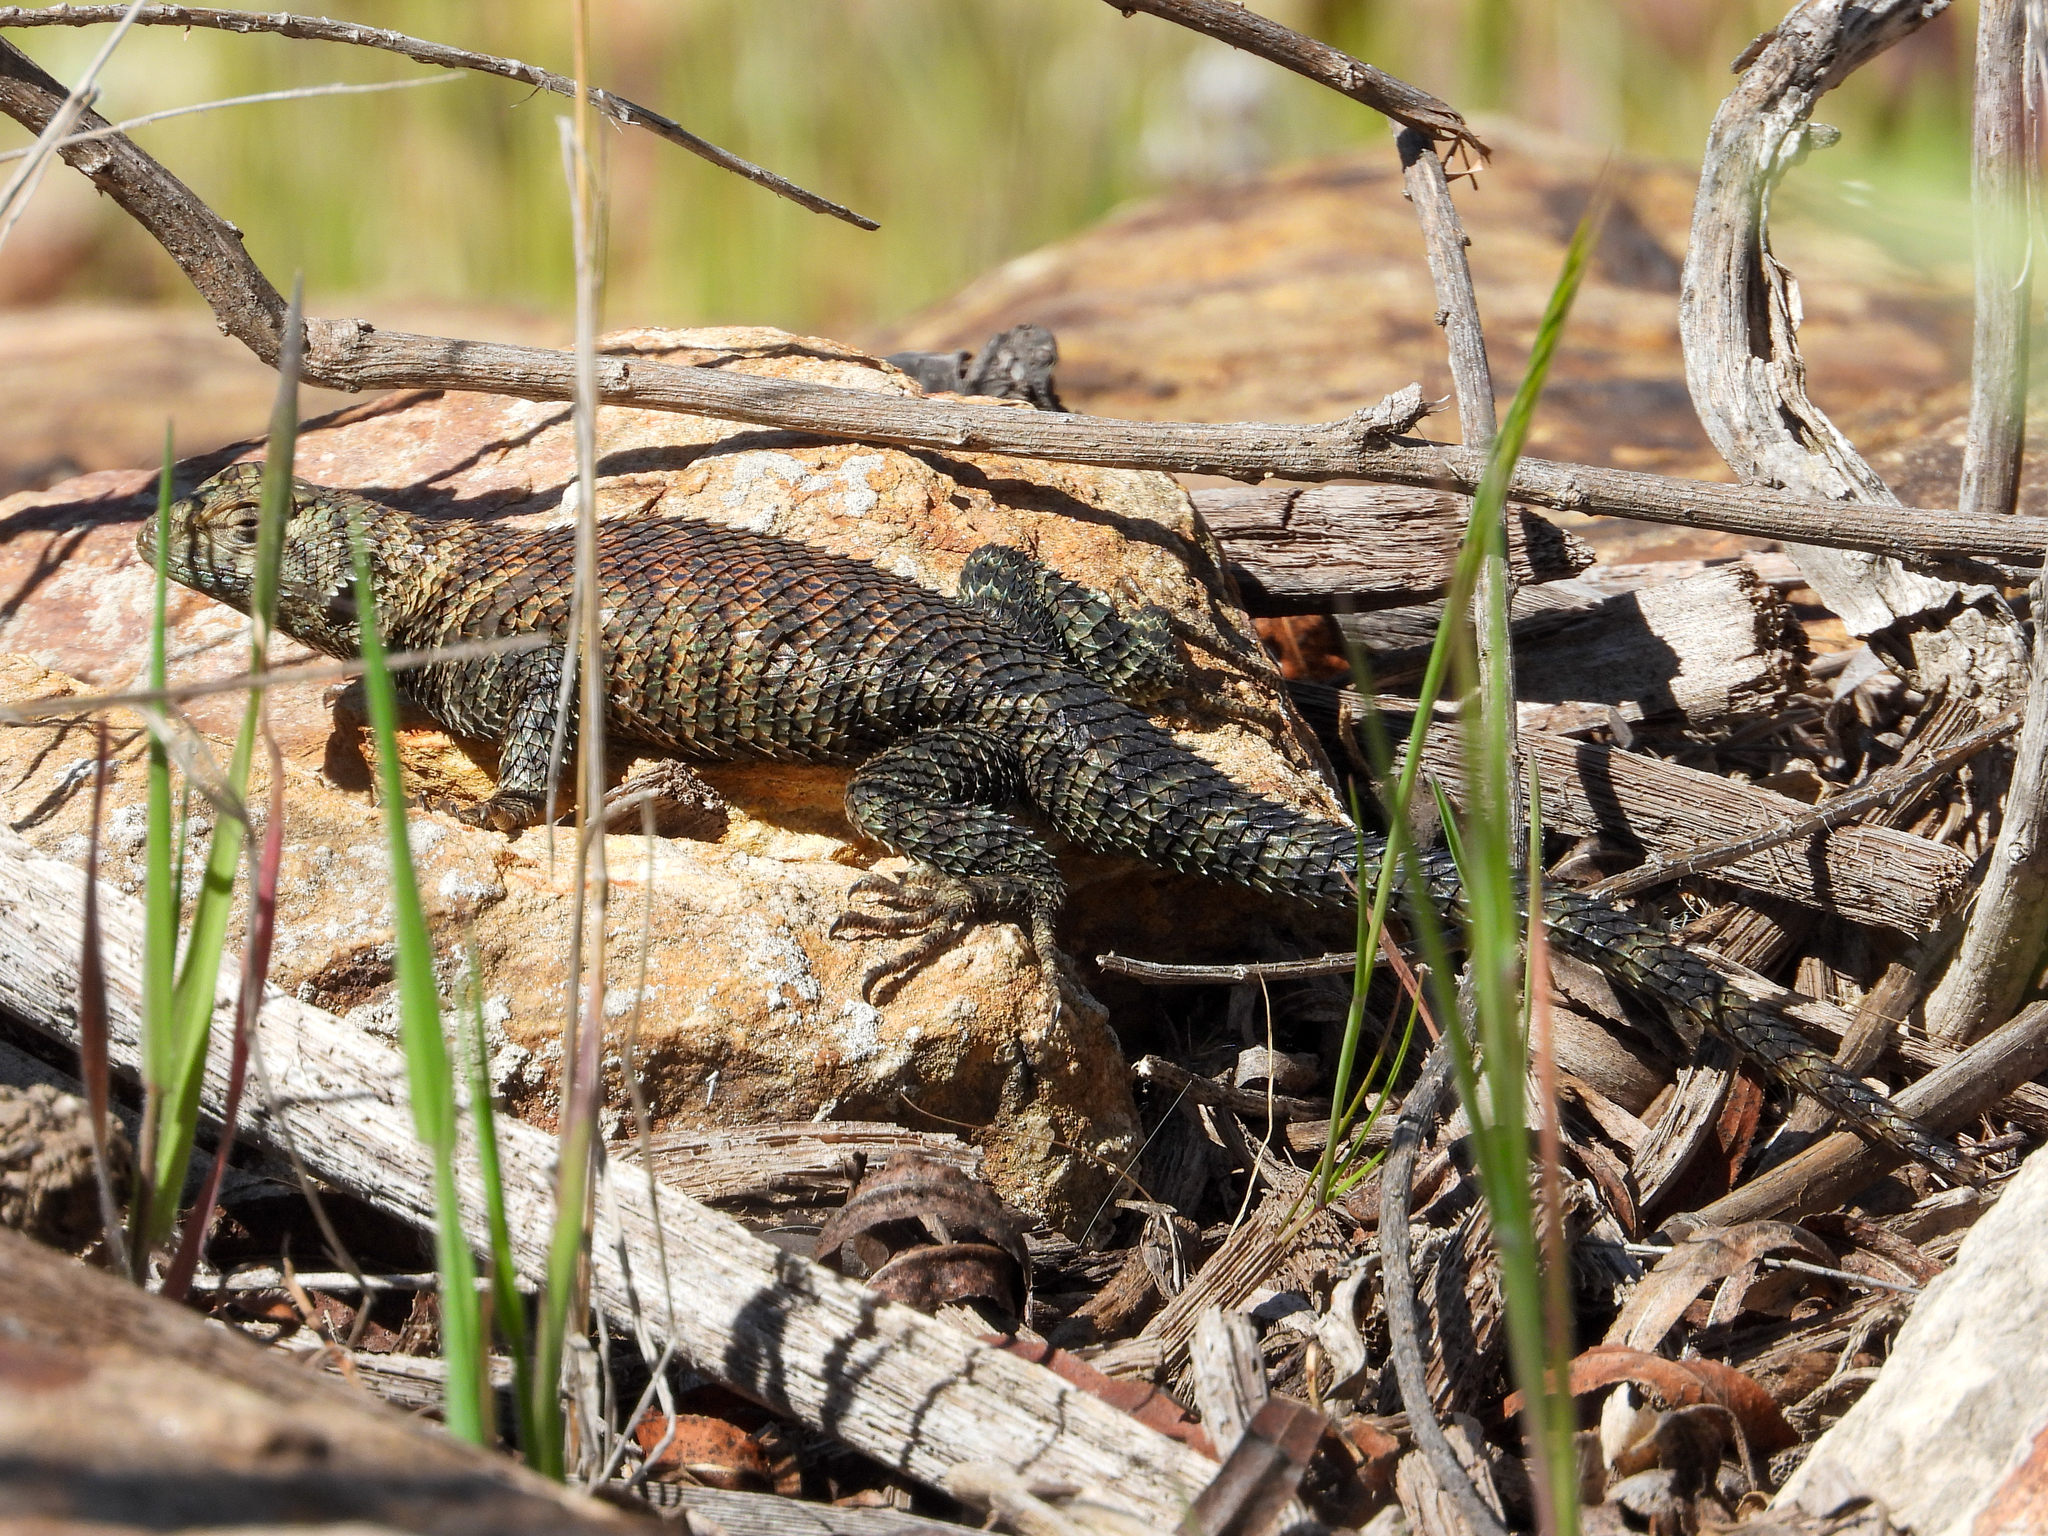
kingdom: Animalia
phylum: Chordata
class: Squamata
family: Phrynosomatidae
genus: Sceloporus
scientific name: Sceloporus orcutti
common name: Granite spiny lizard
